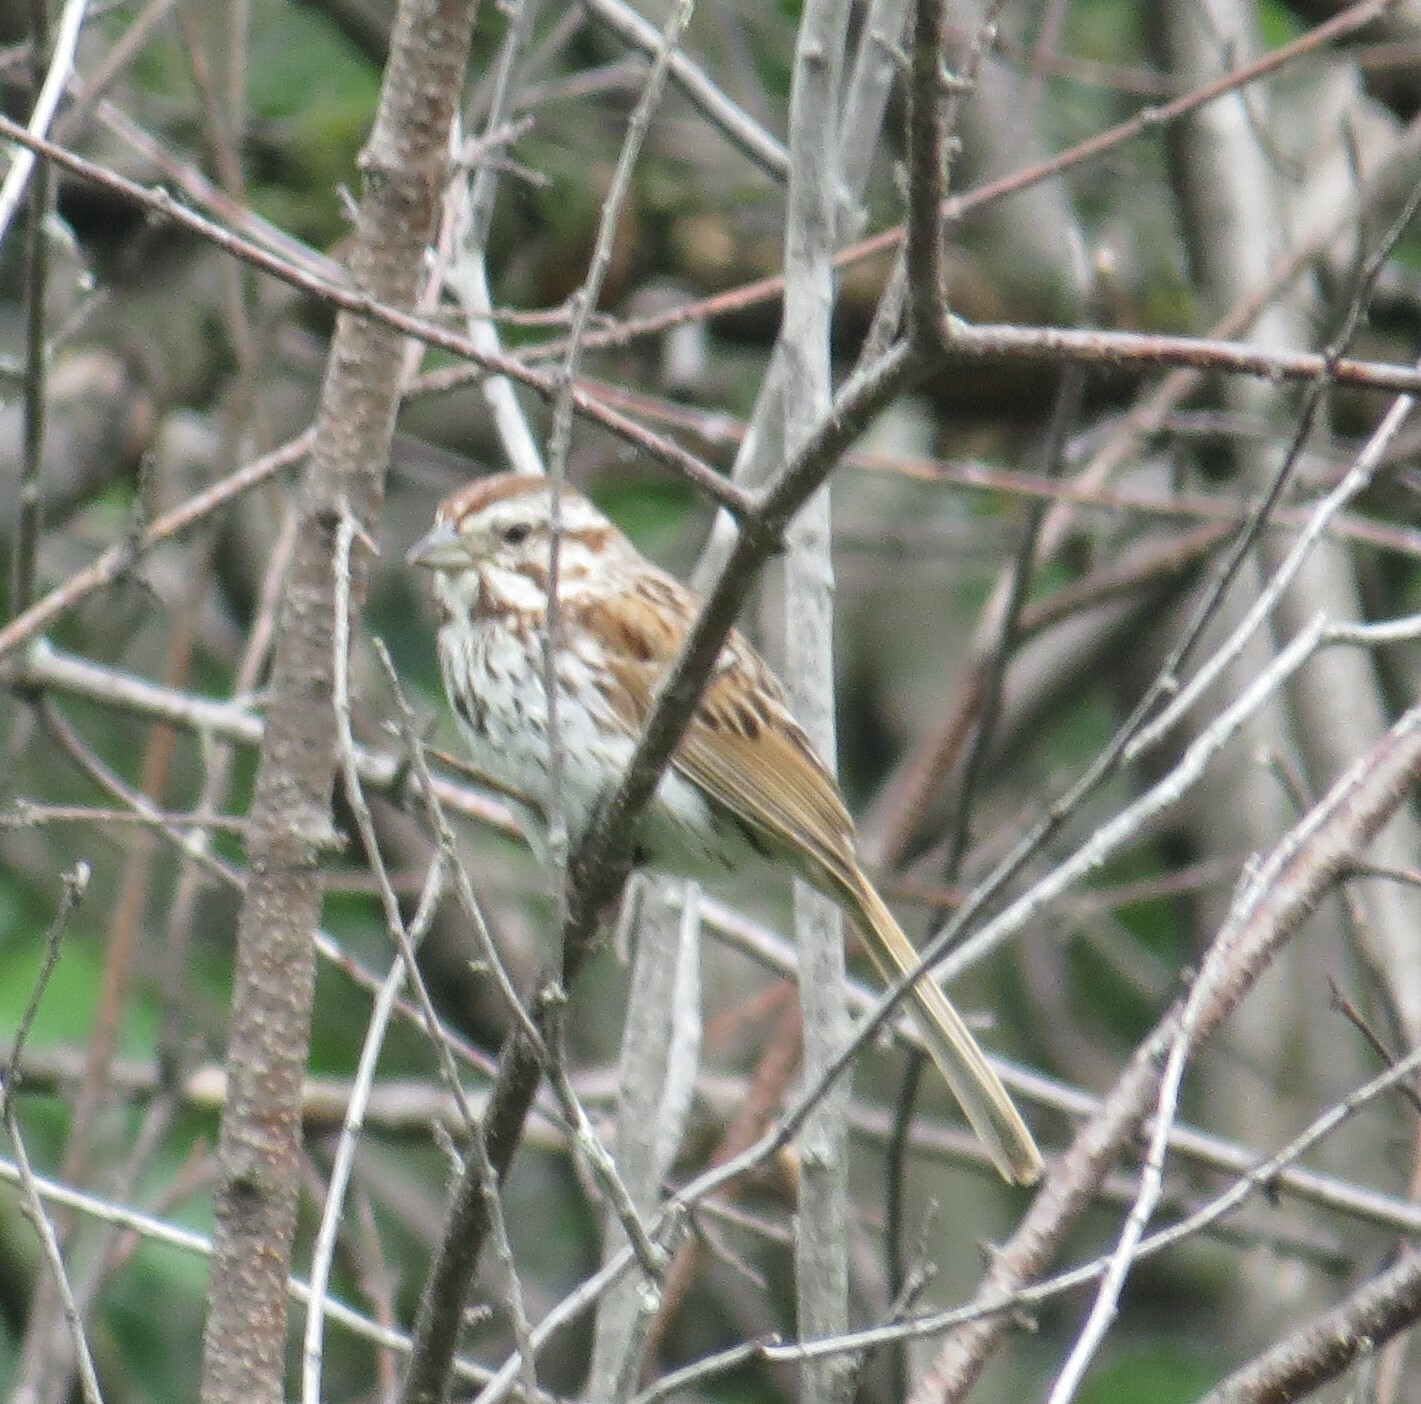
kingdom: Animalia
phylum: Chordata
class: Aves
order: Passeriformes
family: Passerellidae
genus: Melospiza
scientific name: Melospiza melodia
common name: Song sparrow
